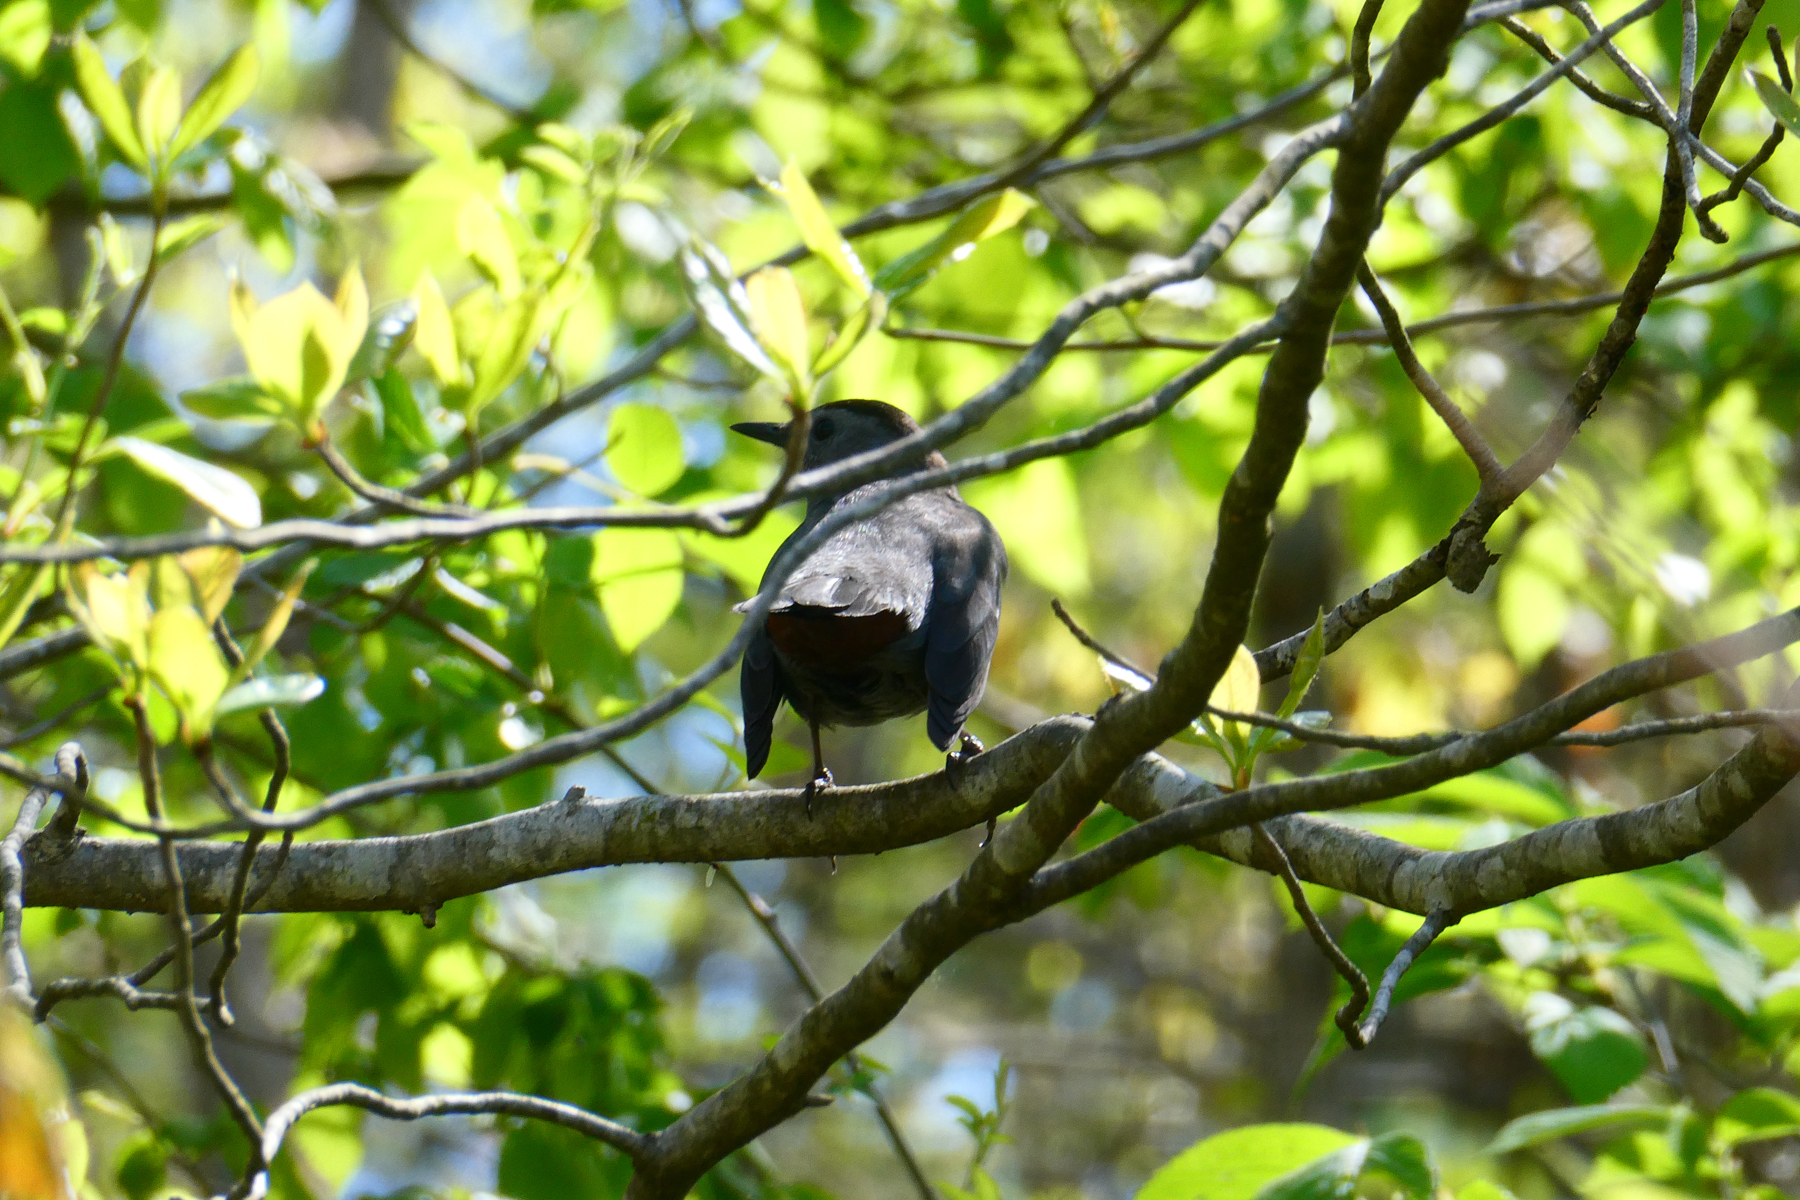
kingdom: Animalia
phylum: Chordata
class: Aves
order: Passeriformes
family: Mimidae
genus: Dumetella
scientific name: Dumetella carolinensis
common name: Gray catbird
